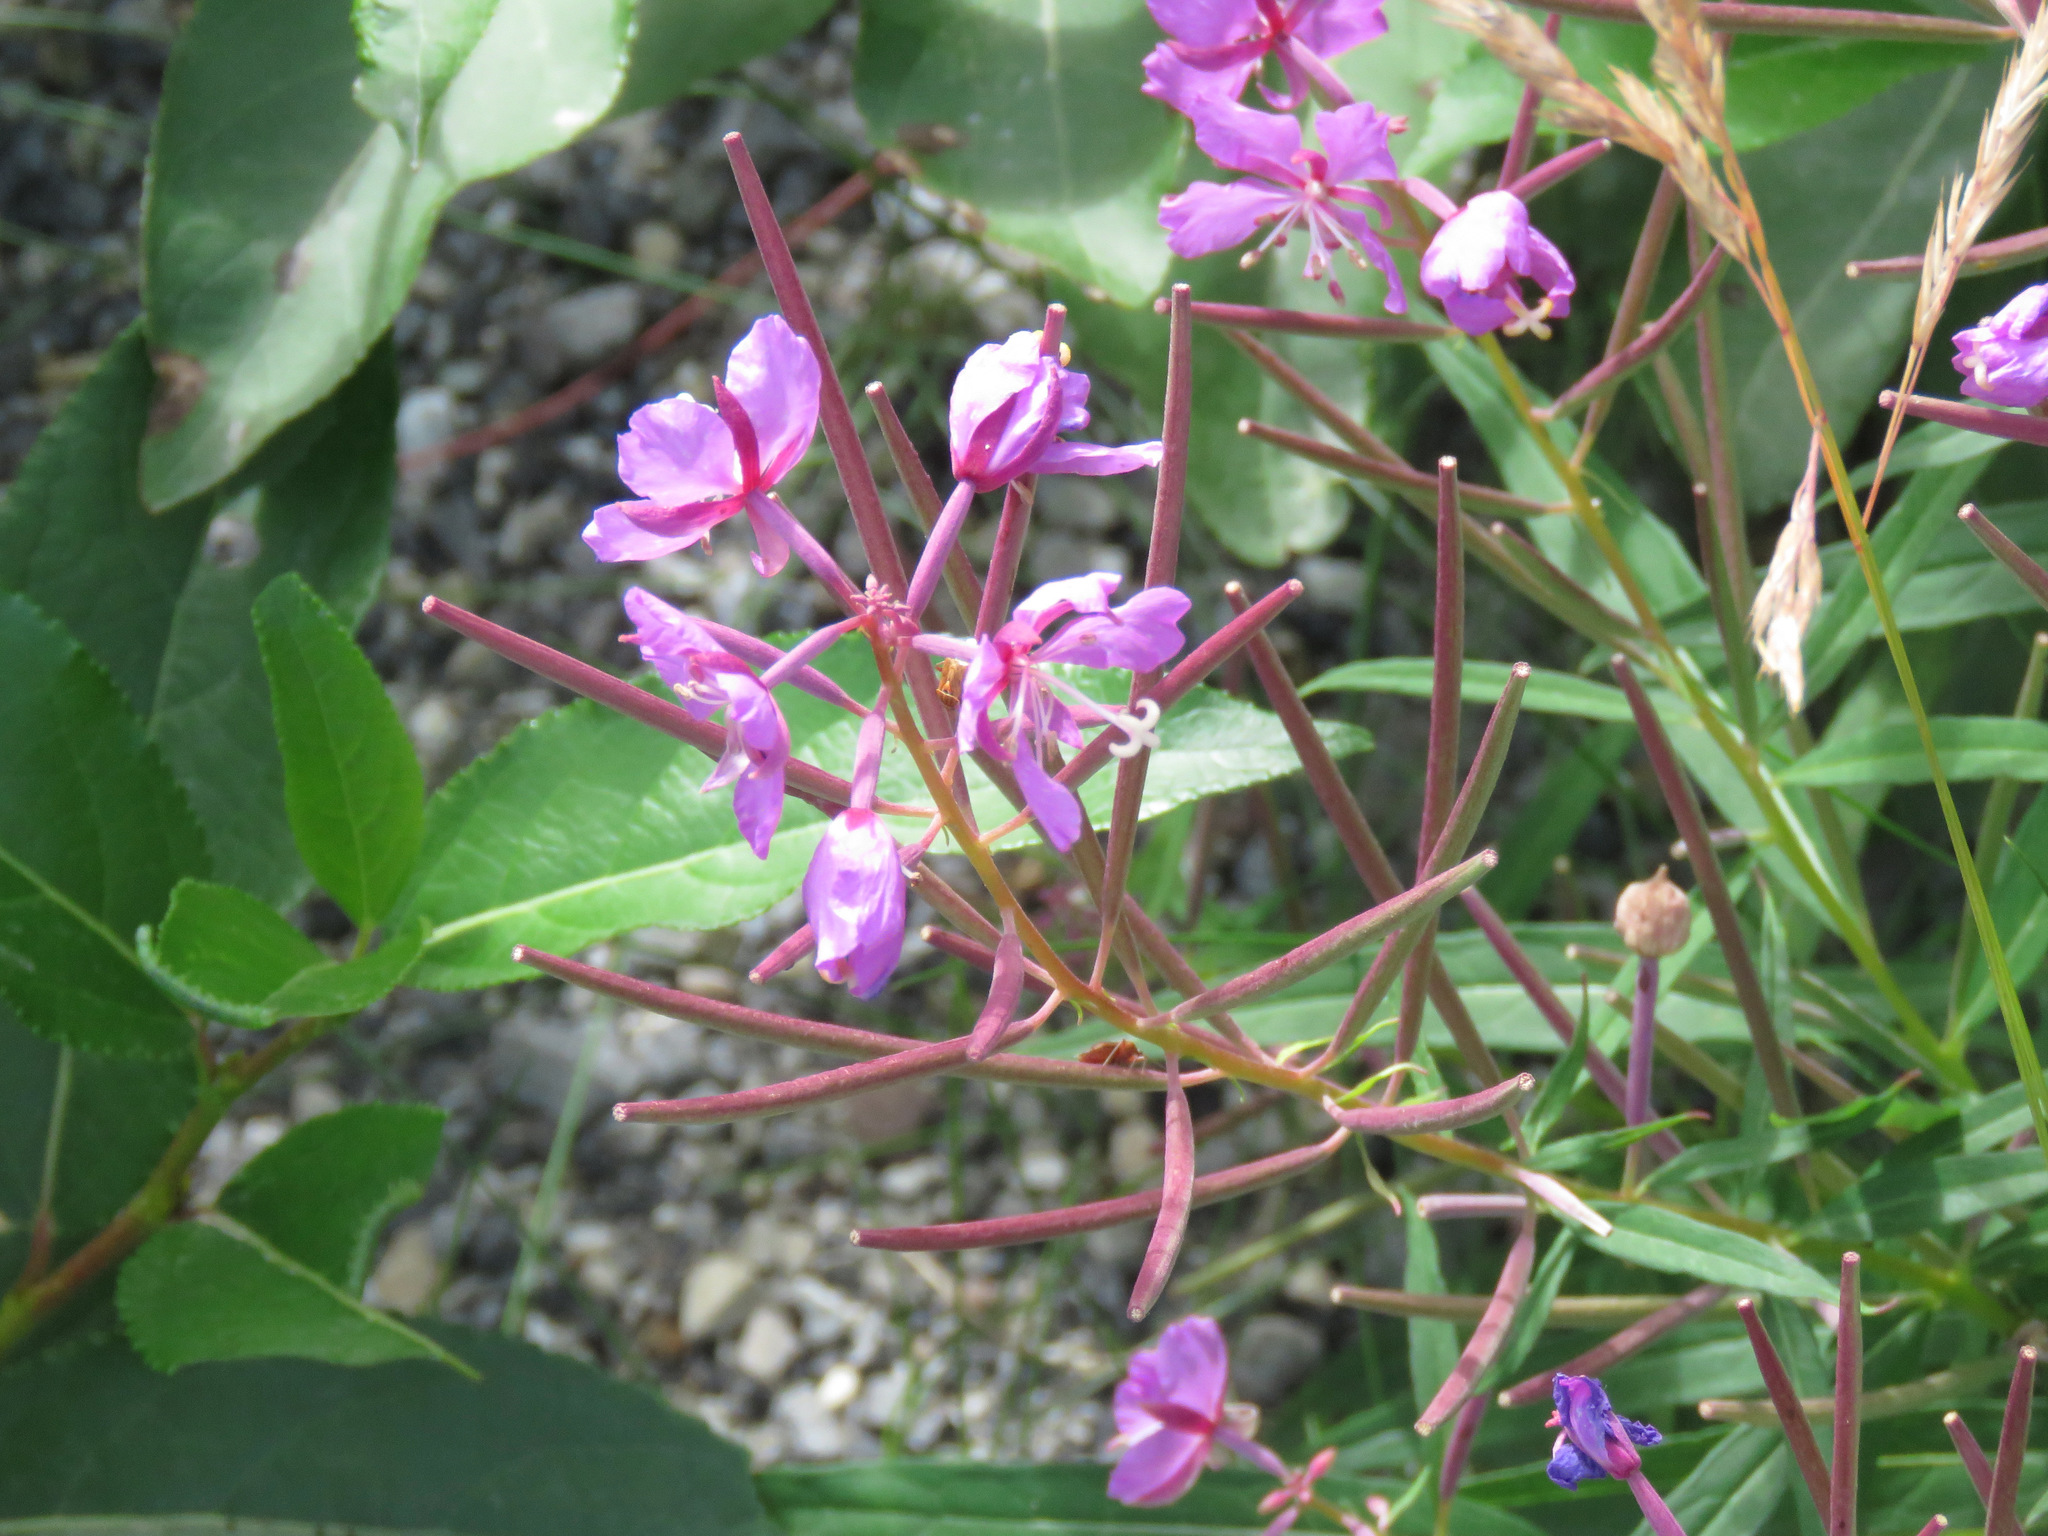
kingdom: Plantae
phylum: Tracheophyta
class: Magnoliopsida
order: Myrtales
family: Onagraceae
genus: Chamaenerion
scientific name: Chamaenerion angustifolium
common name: Fireweed
